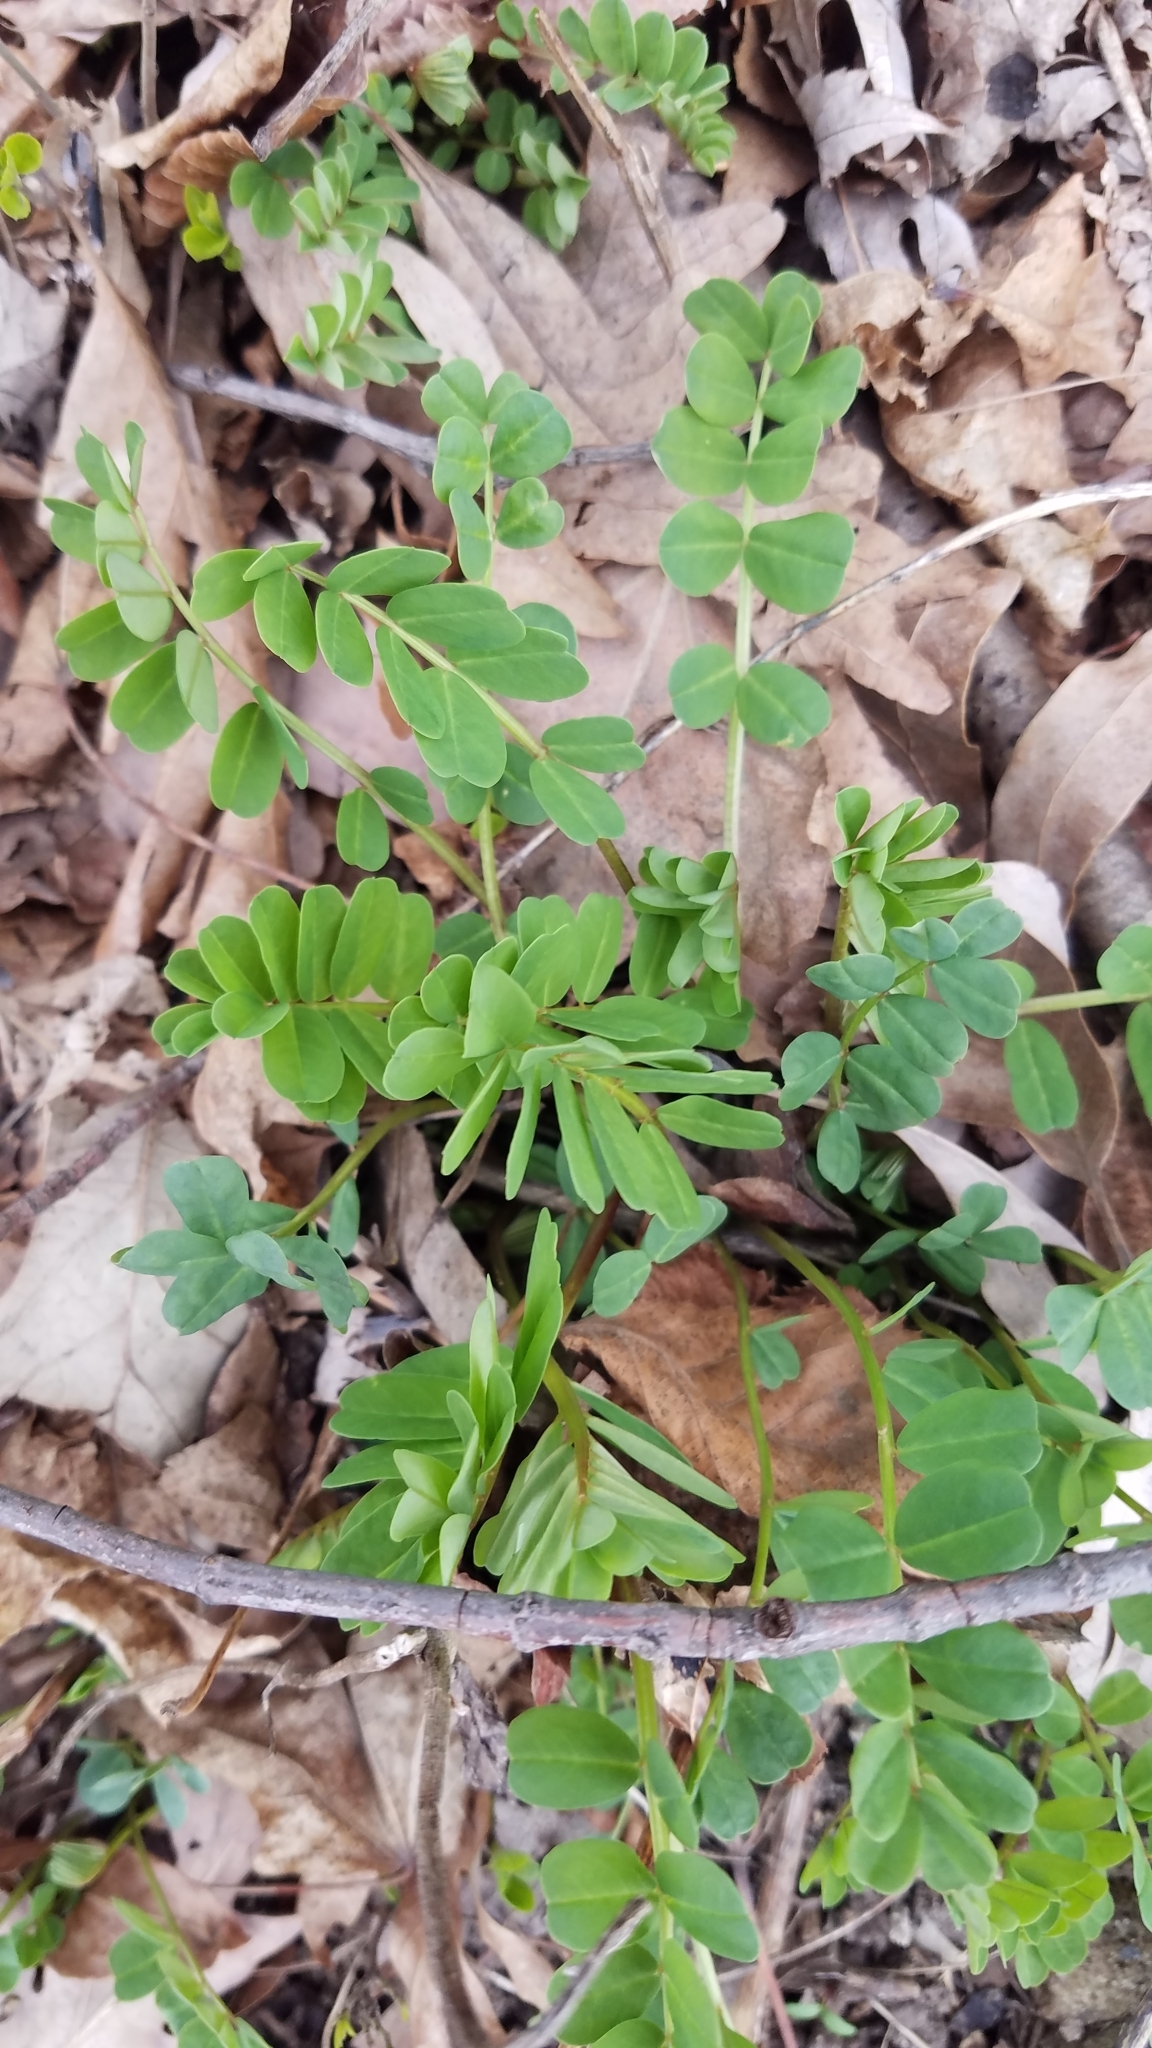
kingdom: Plantae
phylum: Tracheophyta
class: Magnoliopsida
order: Fabales
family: Fabaceae
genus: Coronilla
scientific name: Coronilla varia
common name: Crownvetch
